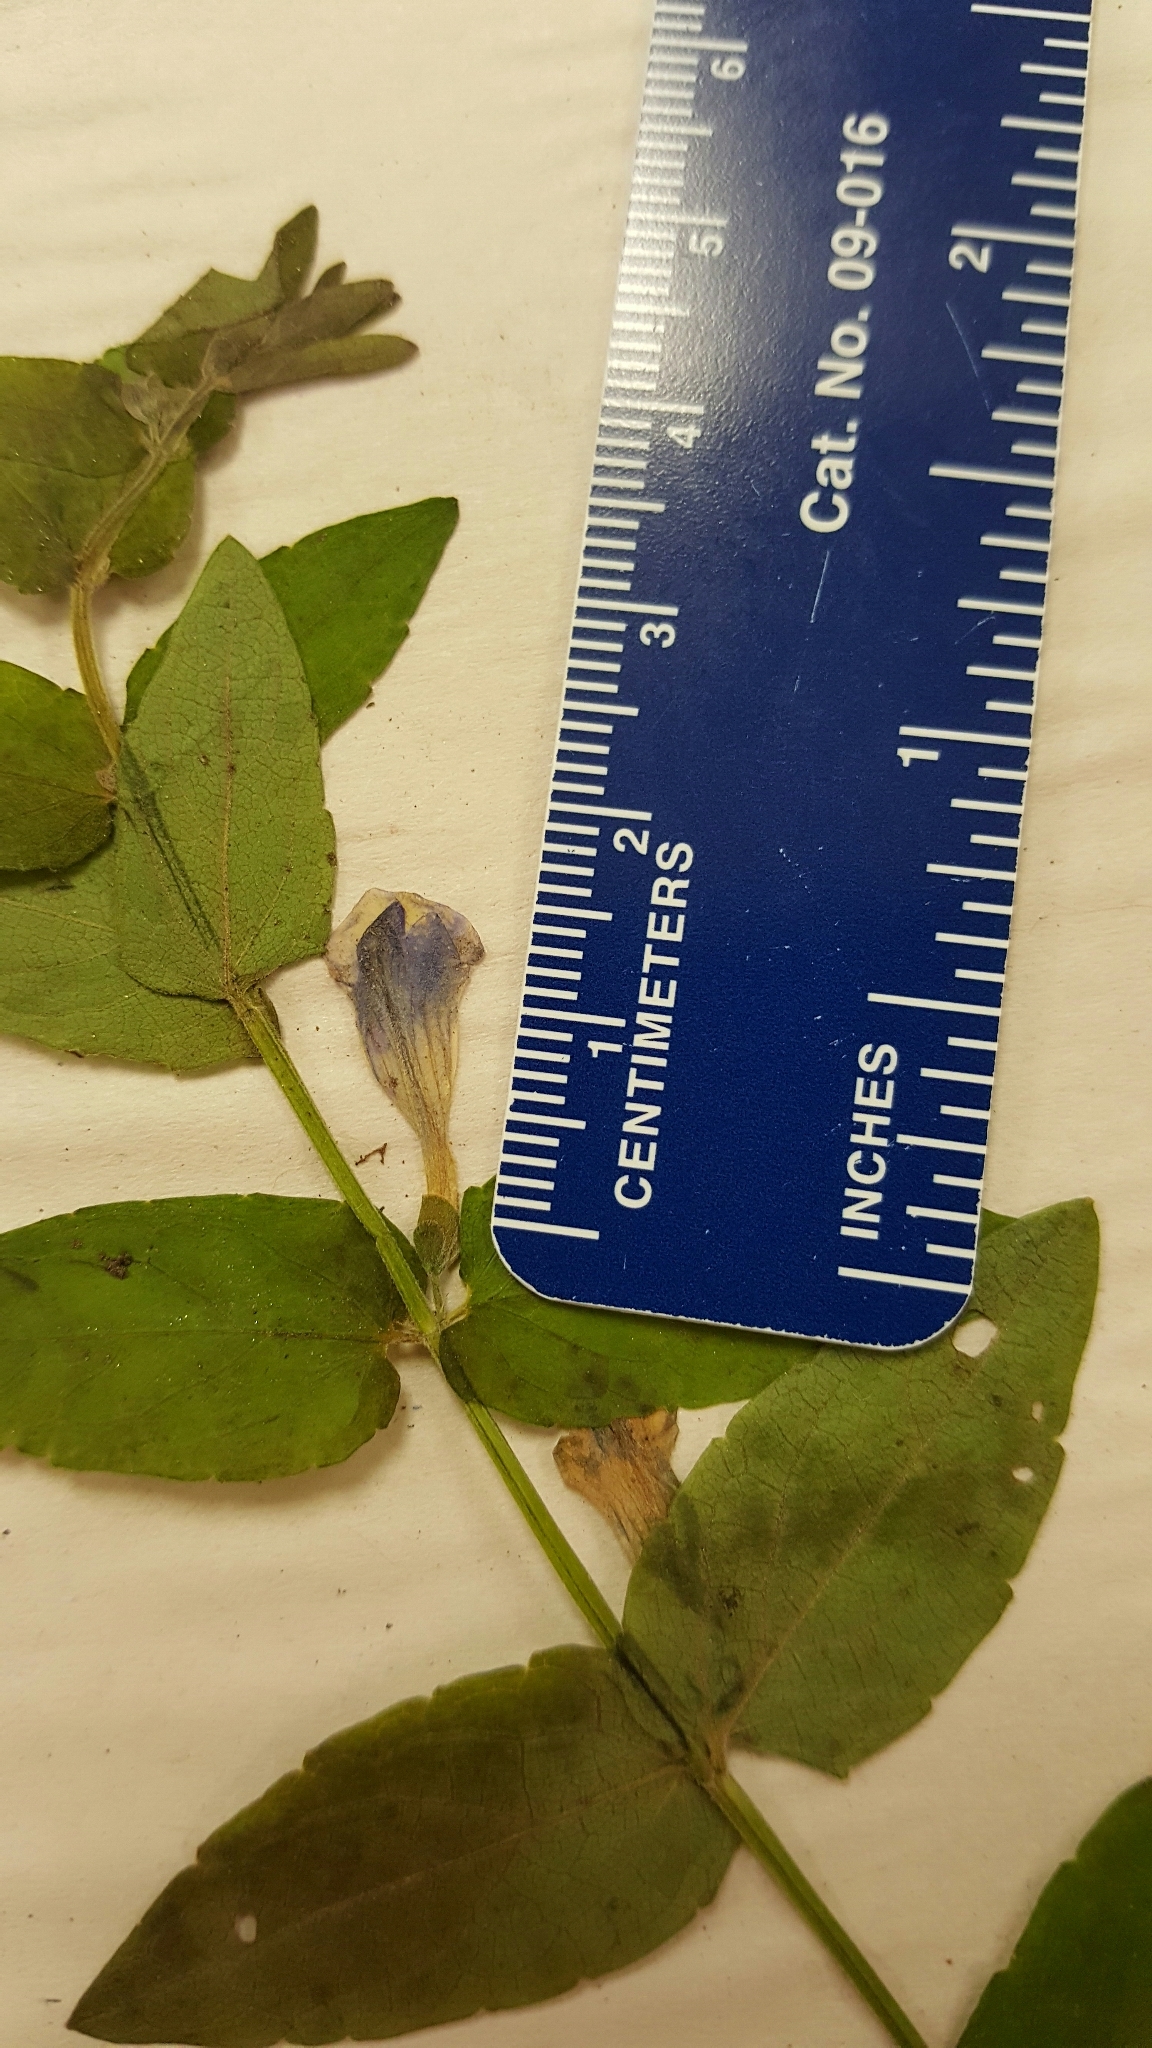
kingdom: Plantae
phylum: Tracheophyta
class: Magnoliopsida
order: Lamiales
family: Lamiaceae
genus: Scutellaria
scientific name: Scutellaria galericulata
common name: Skullcap
